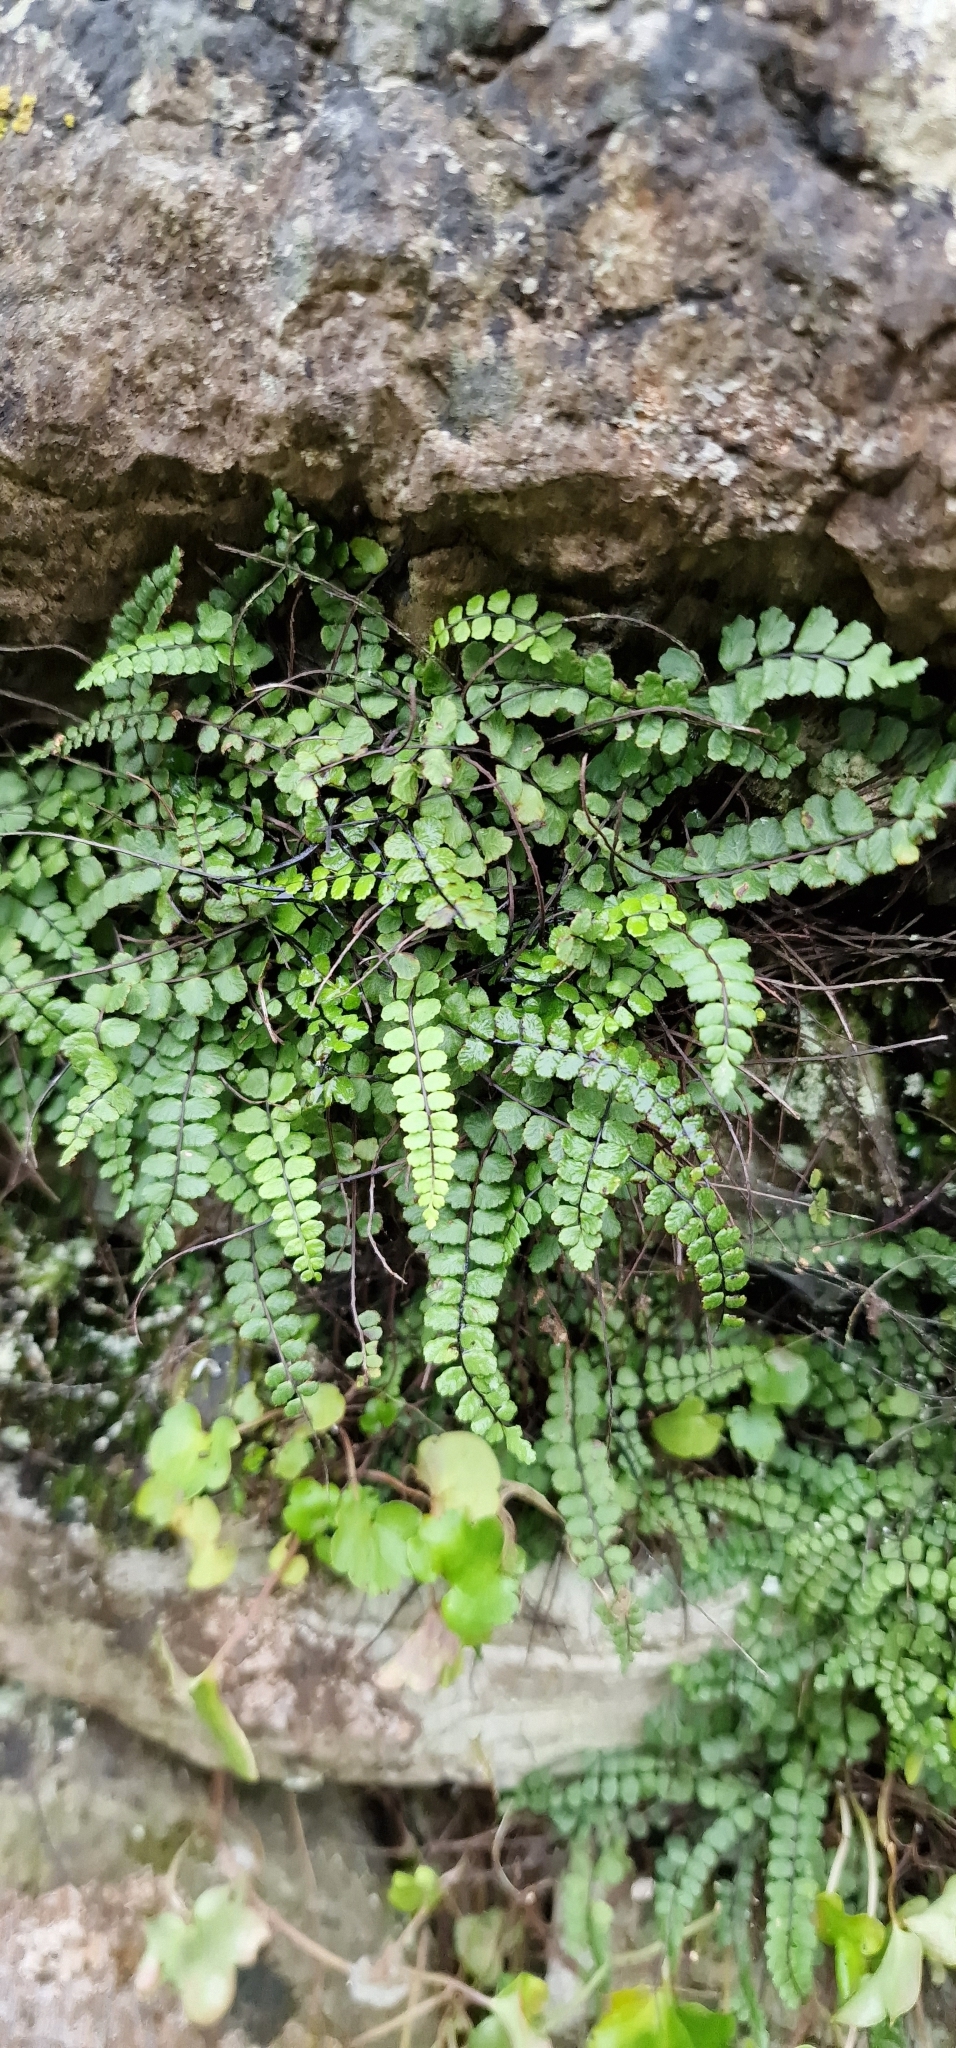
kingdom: Plantae
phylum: Tracheophyta
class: Polypodiopsida
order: Polypodiales
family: Aspleniaceae
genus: Asplenium
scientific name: Asplenium trichomanes
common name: Maidenhair spleenwort
